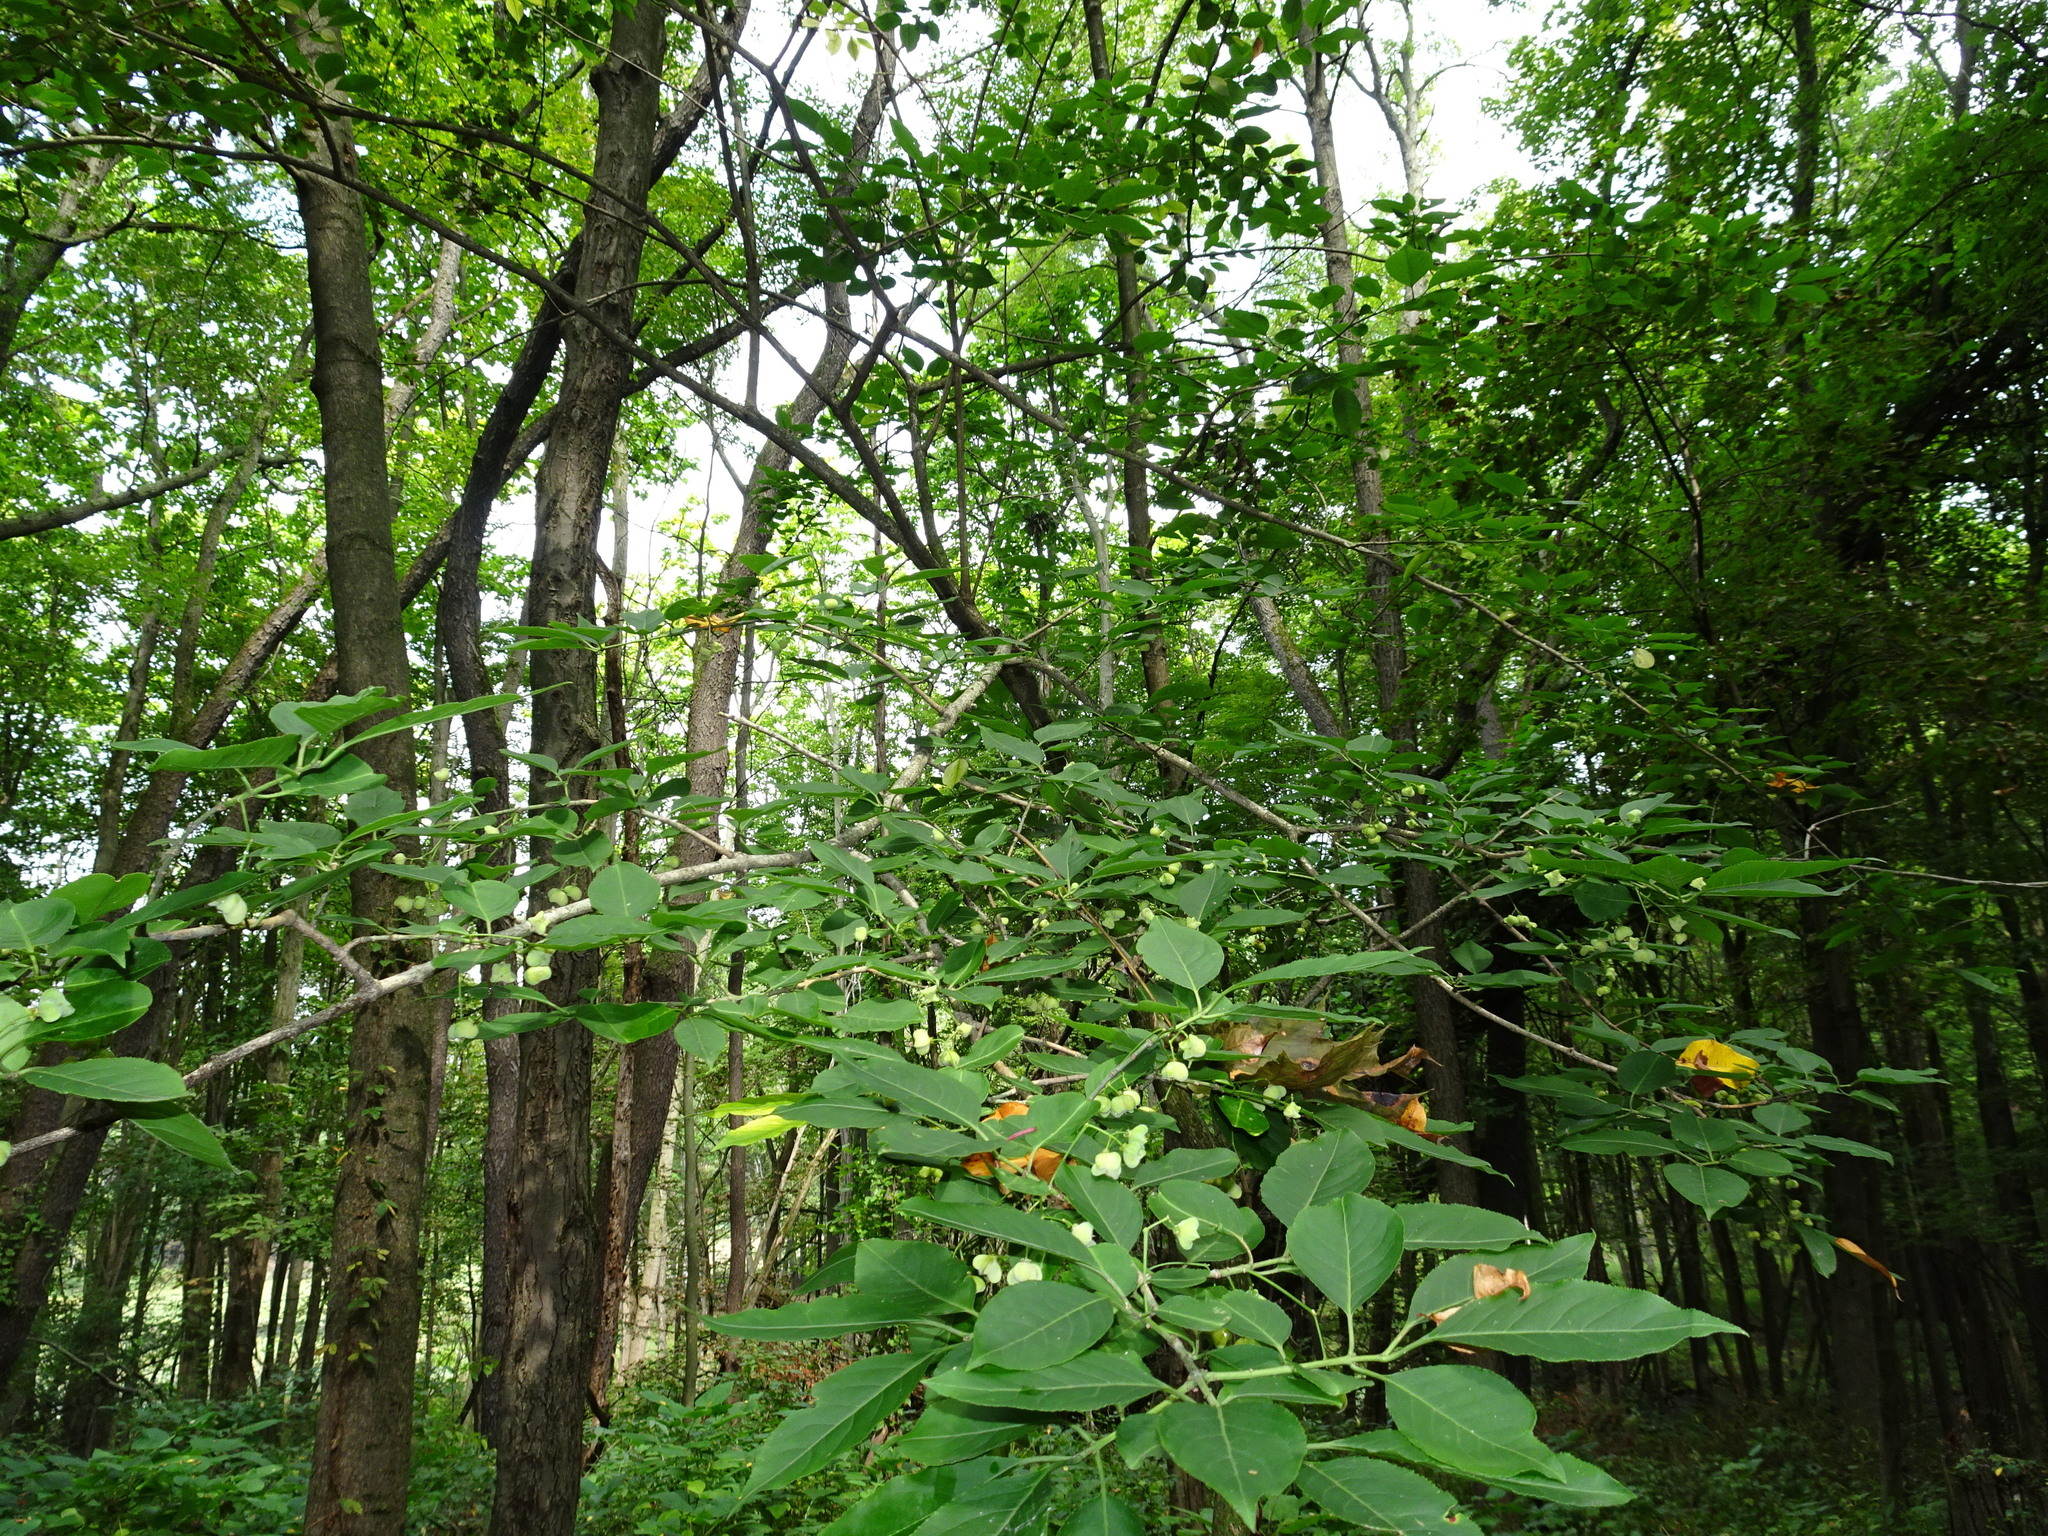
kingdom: Plantae
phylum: Tracheophyta
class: Magnoliopsida
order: Celastrales
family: Celastraceae
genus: Euonymus
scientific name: Euonymus europaeus
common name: Spindle
